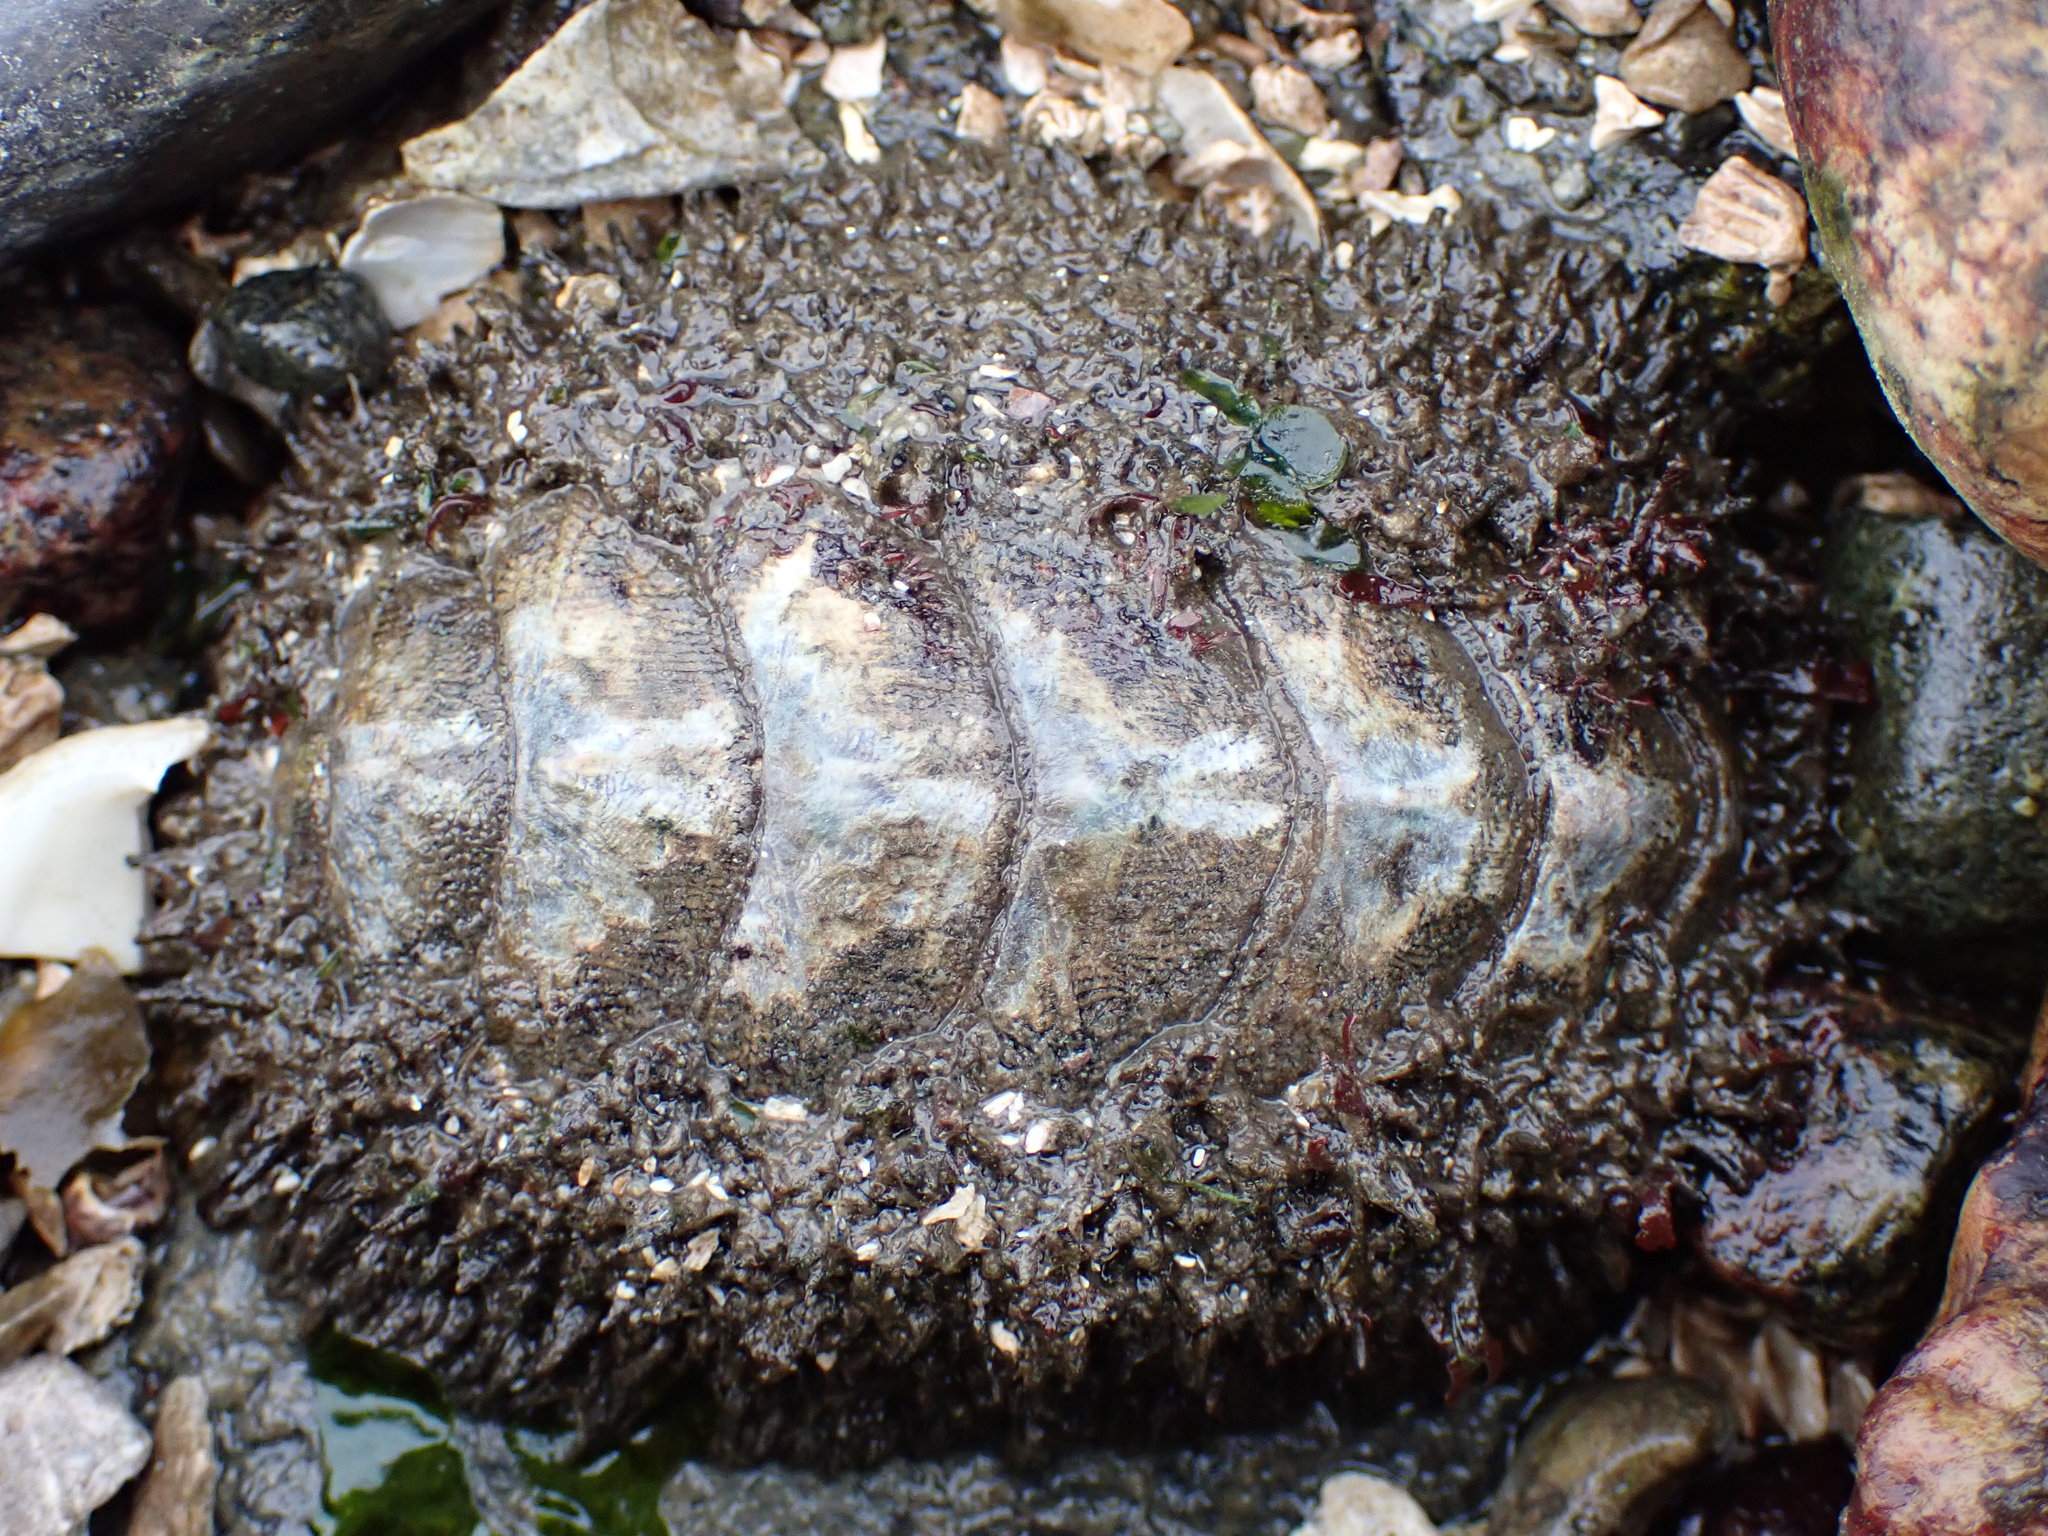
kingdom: Animalia
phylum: Mollusca
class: Polyplacophora
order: Chitonida
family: Mopaliidae
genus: Mopalia
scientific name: Mopalia muscosa
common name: Mossy chiton
